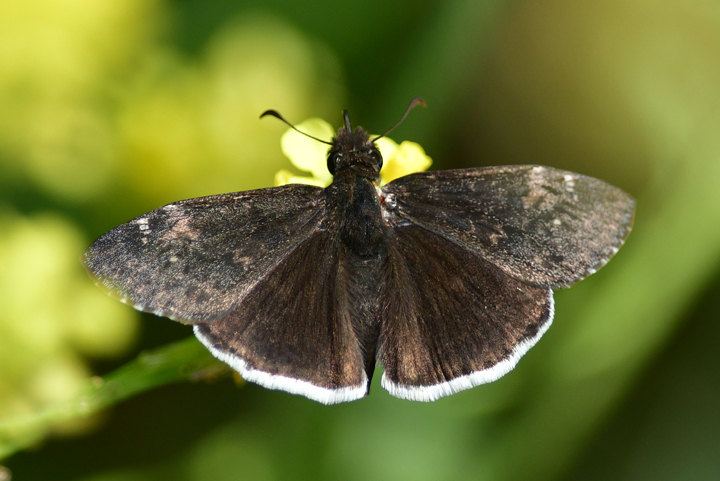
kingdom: Animalia
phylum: Arthropoda
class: Insecta
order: Lepidoptera
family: Hesperiidae
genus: Erynnis
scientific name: Erynnis tristis
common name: Mournful duskywing
